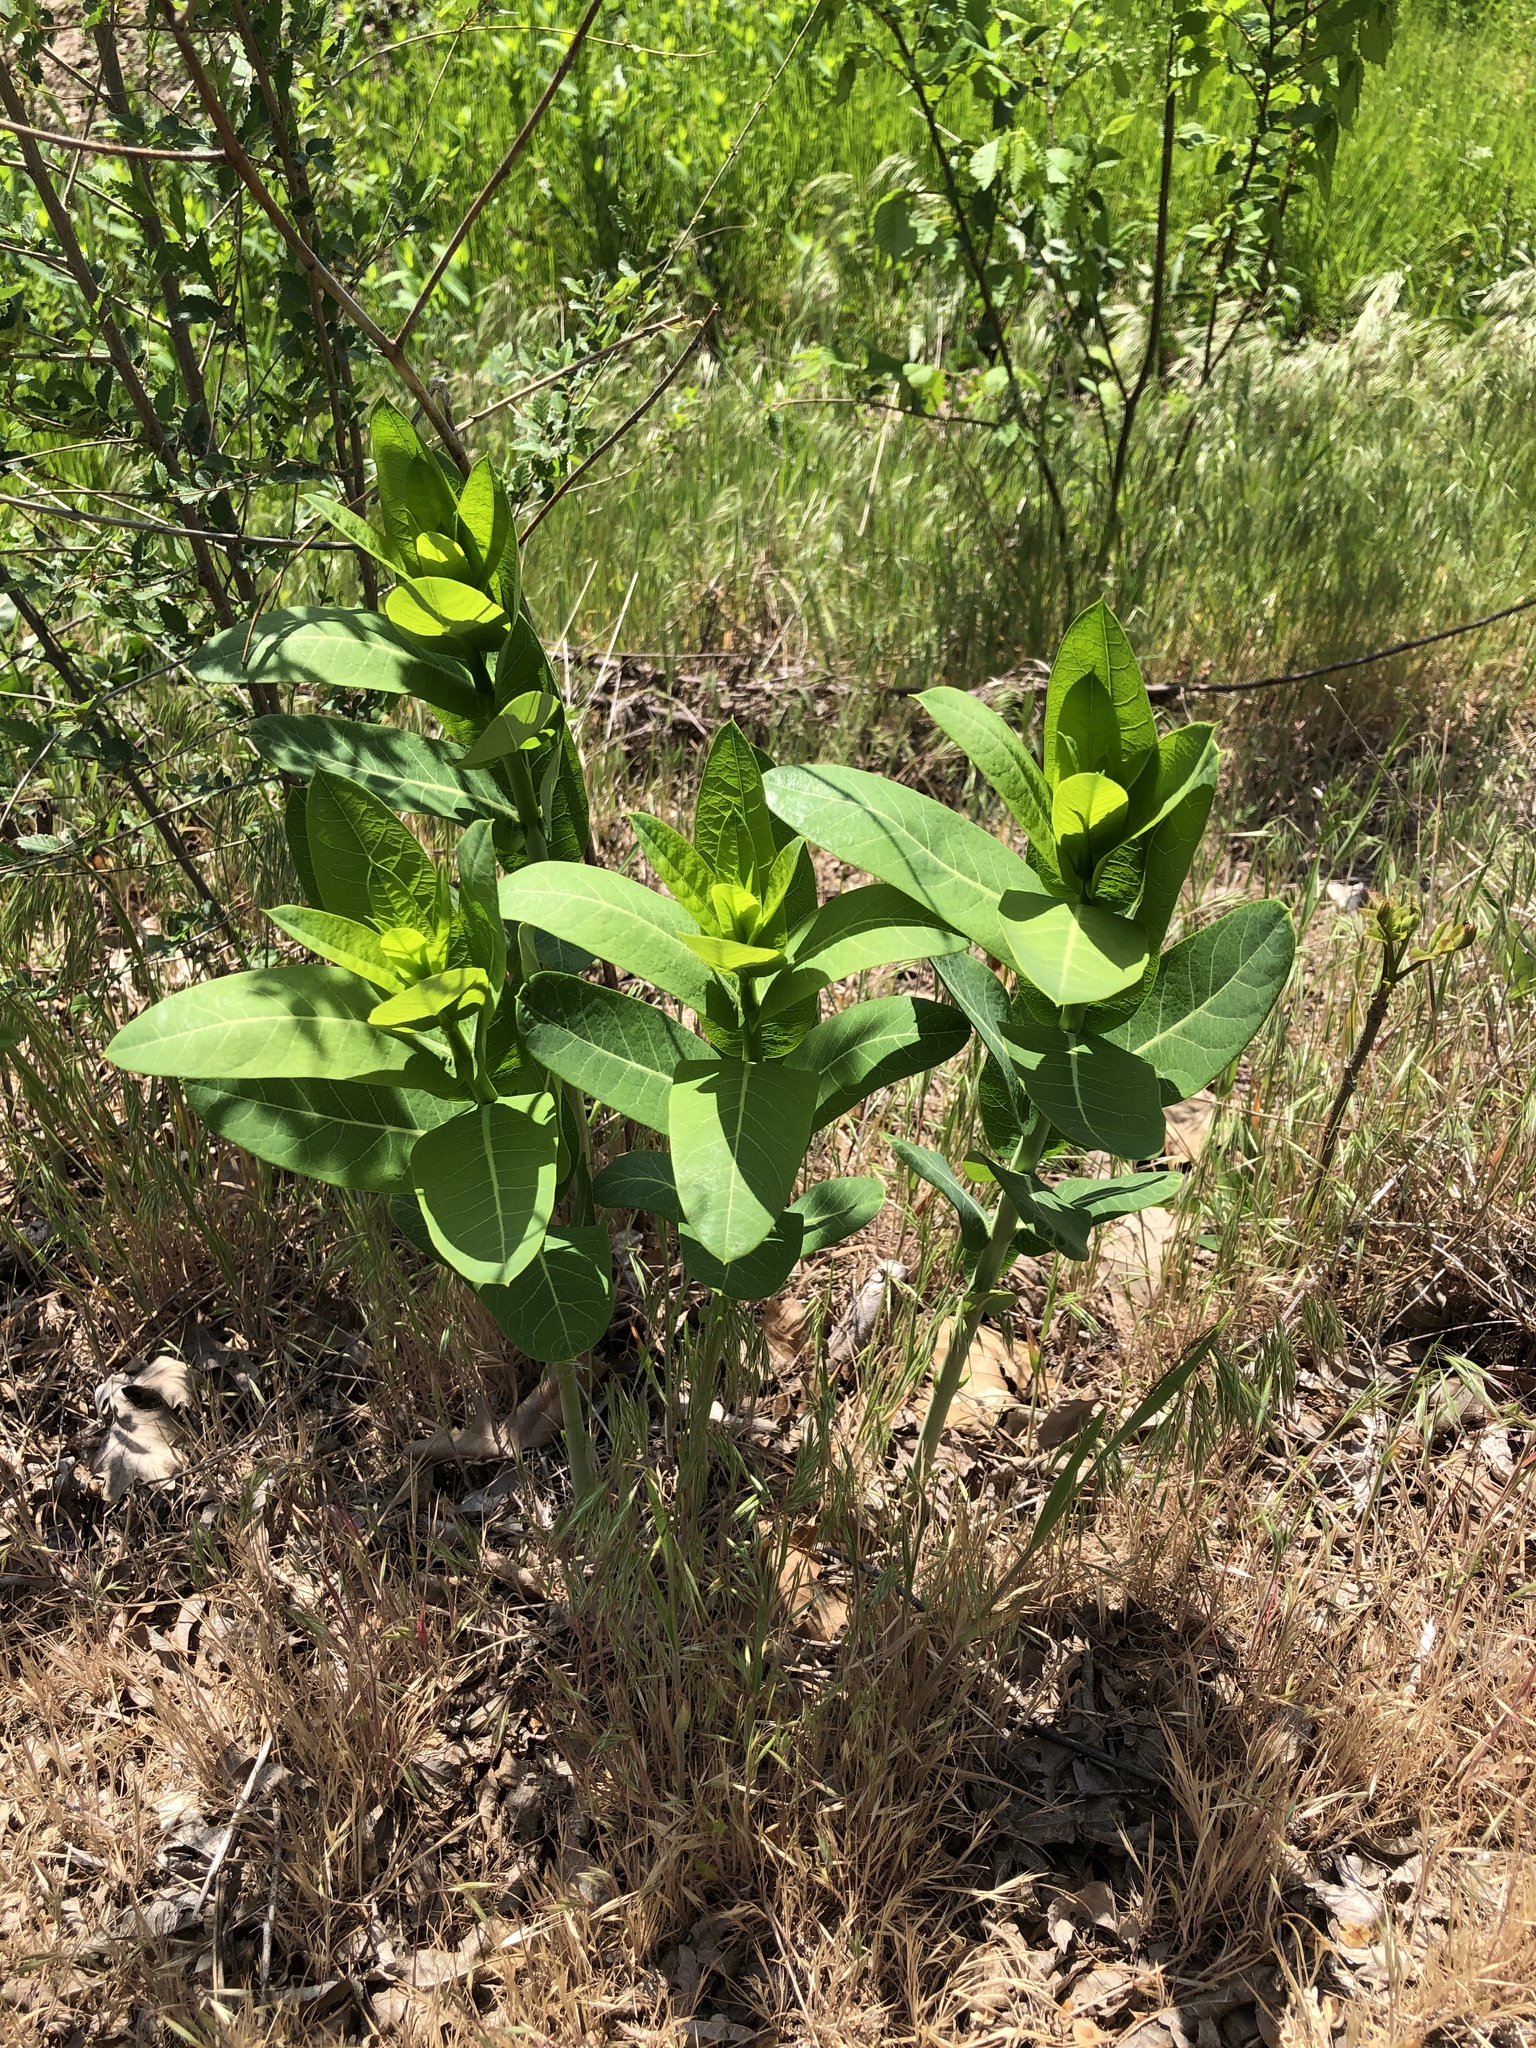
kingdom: Plantae
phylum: Tracheophyta
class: Magnoliopsida
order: Gentianales
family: Apocynaceae
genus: Apocynum
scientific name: Apocynum cannabinum
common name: Hemp dogbane
